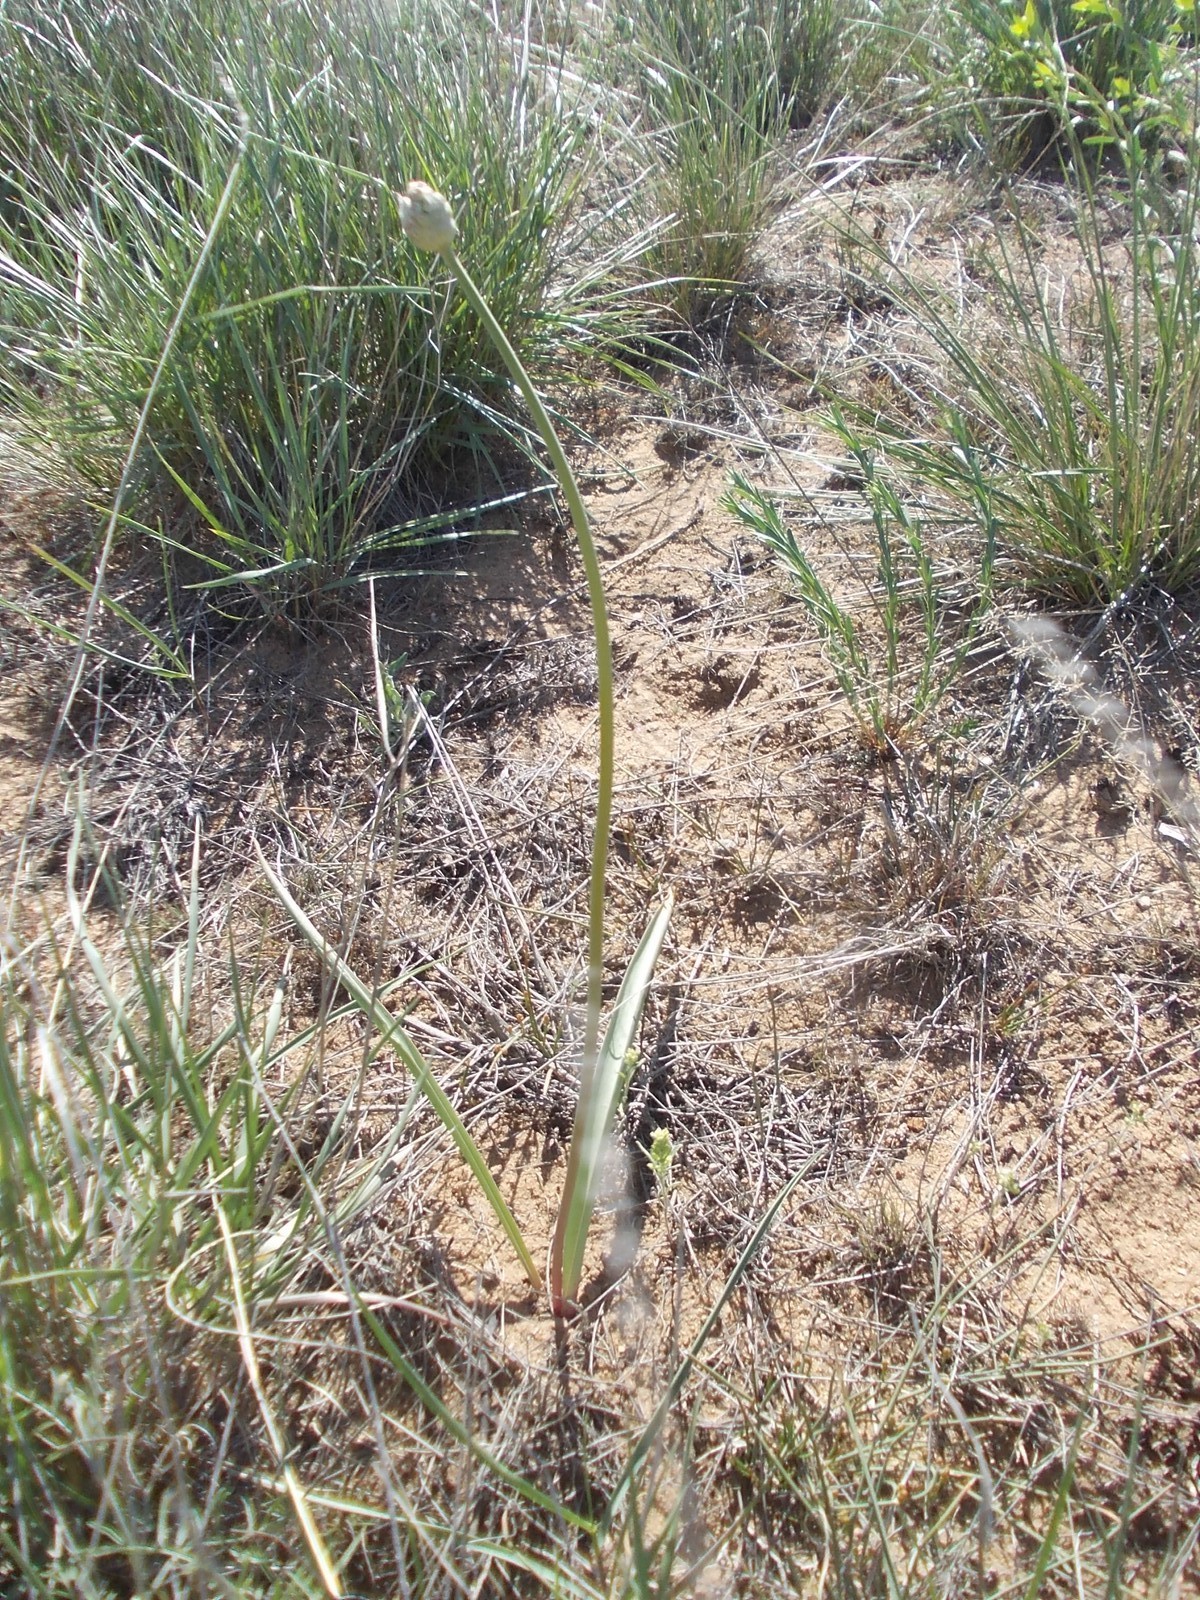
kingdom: Plantae
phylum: Tracheophyta
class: Liliopsida
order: Asparagales
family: Amaryllidaceae
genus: Allium
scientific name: Allium tulipifolium
